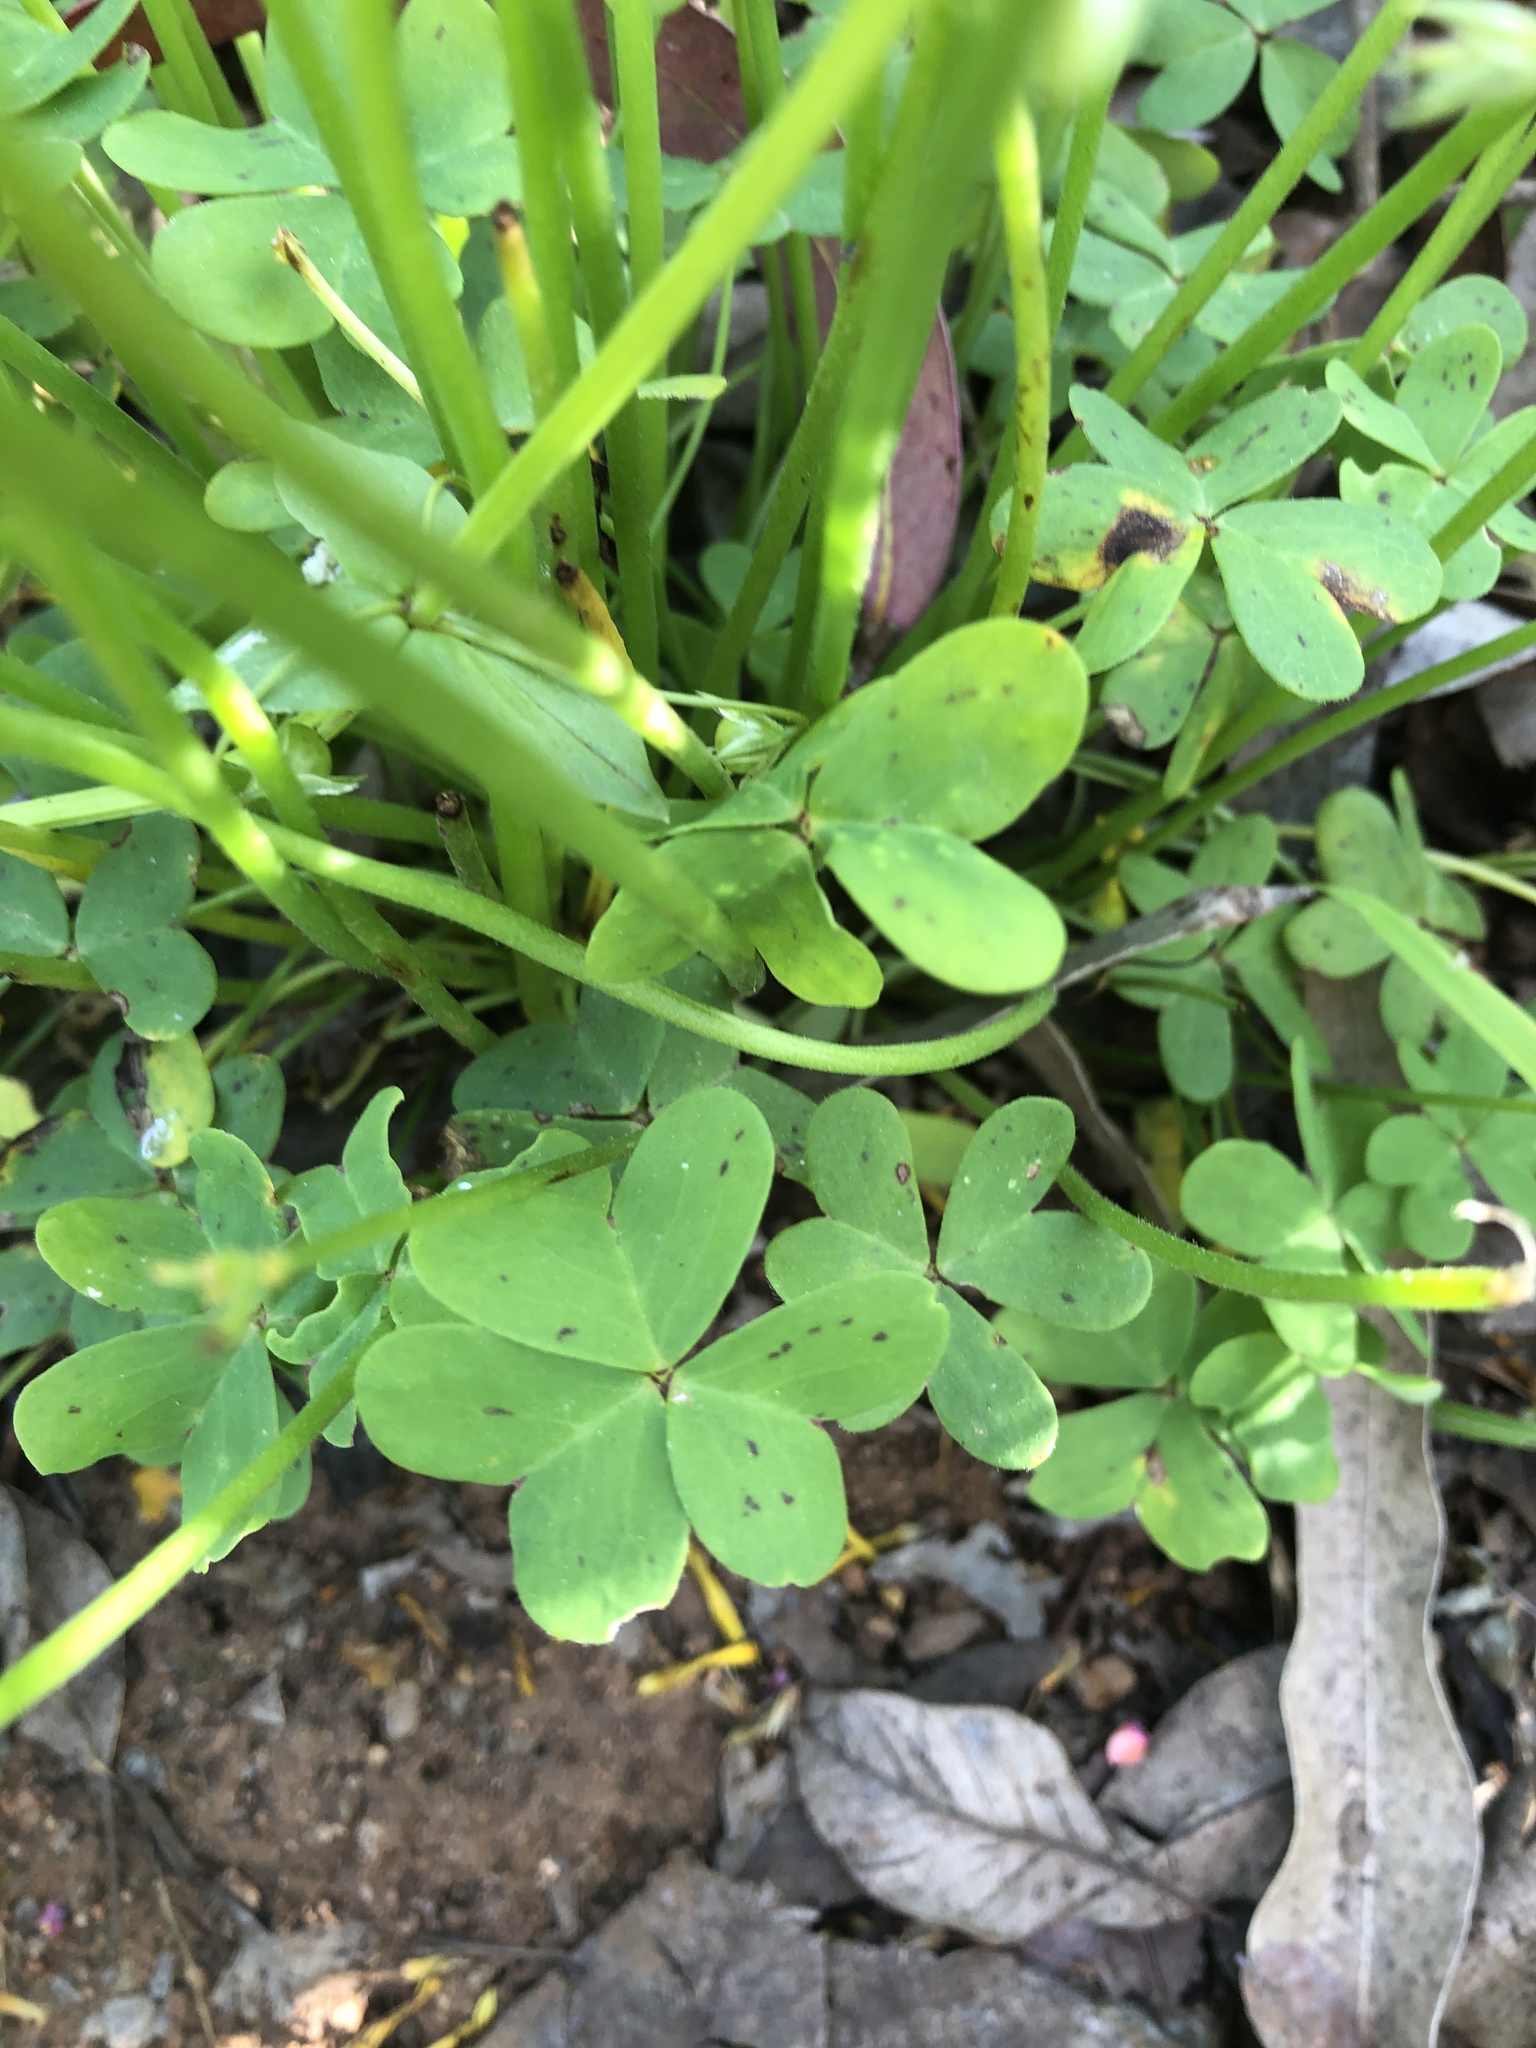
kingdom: Plantae
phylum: Tracheophyta
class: Magnoliopsida
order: Oxalidales
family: Oxalidaceae
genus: Oxalis
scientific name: Oxalis pes-caprae
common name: Bermuda-buttercup
